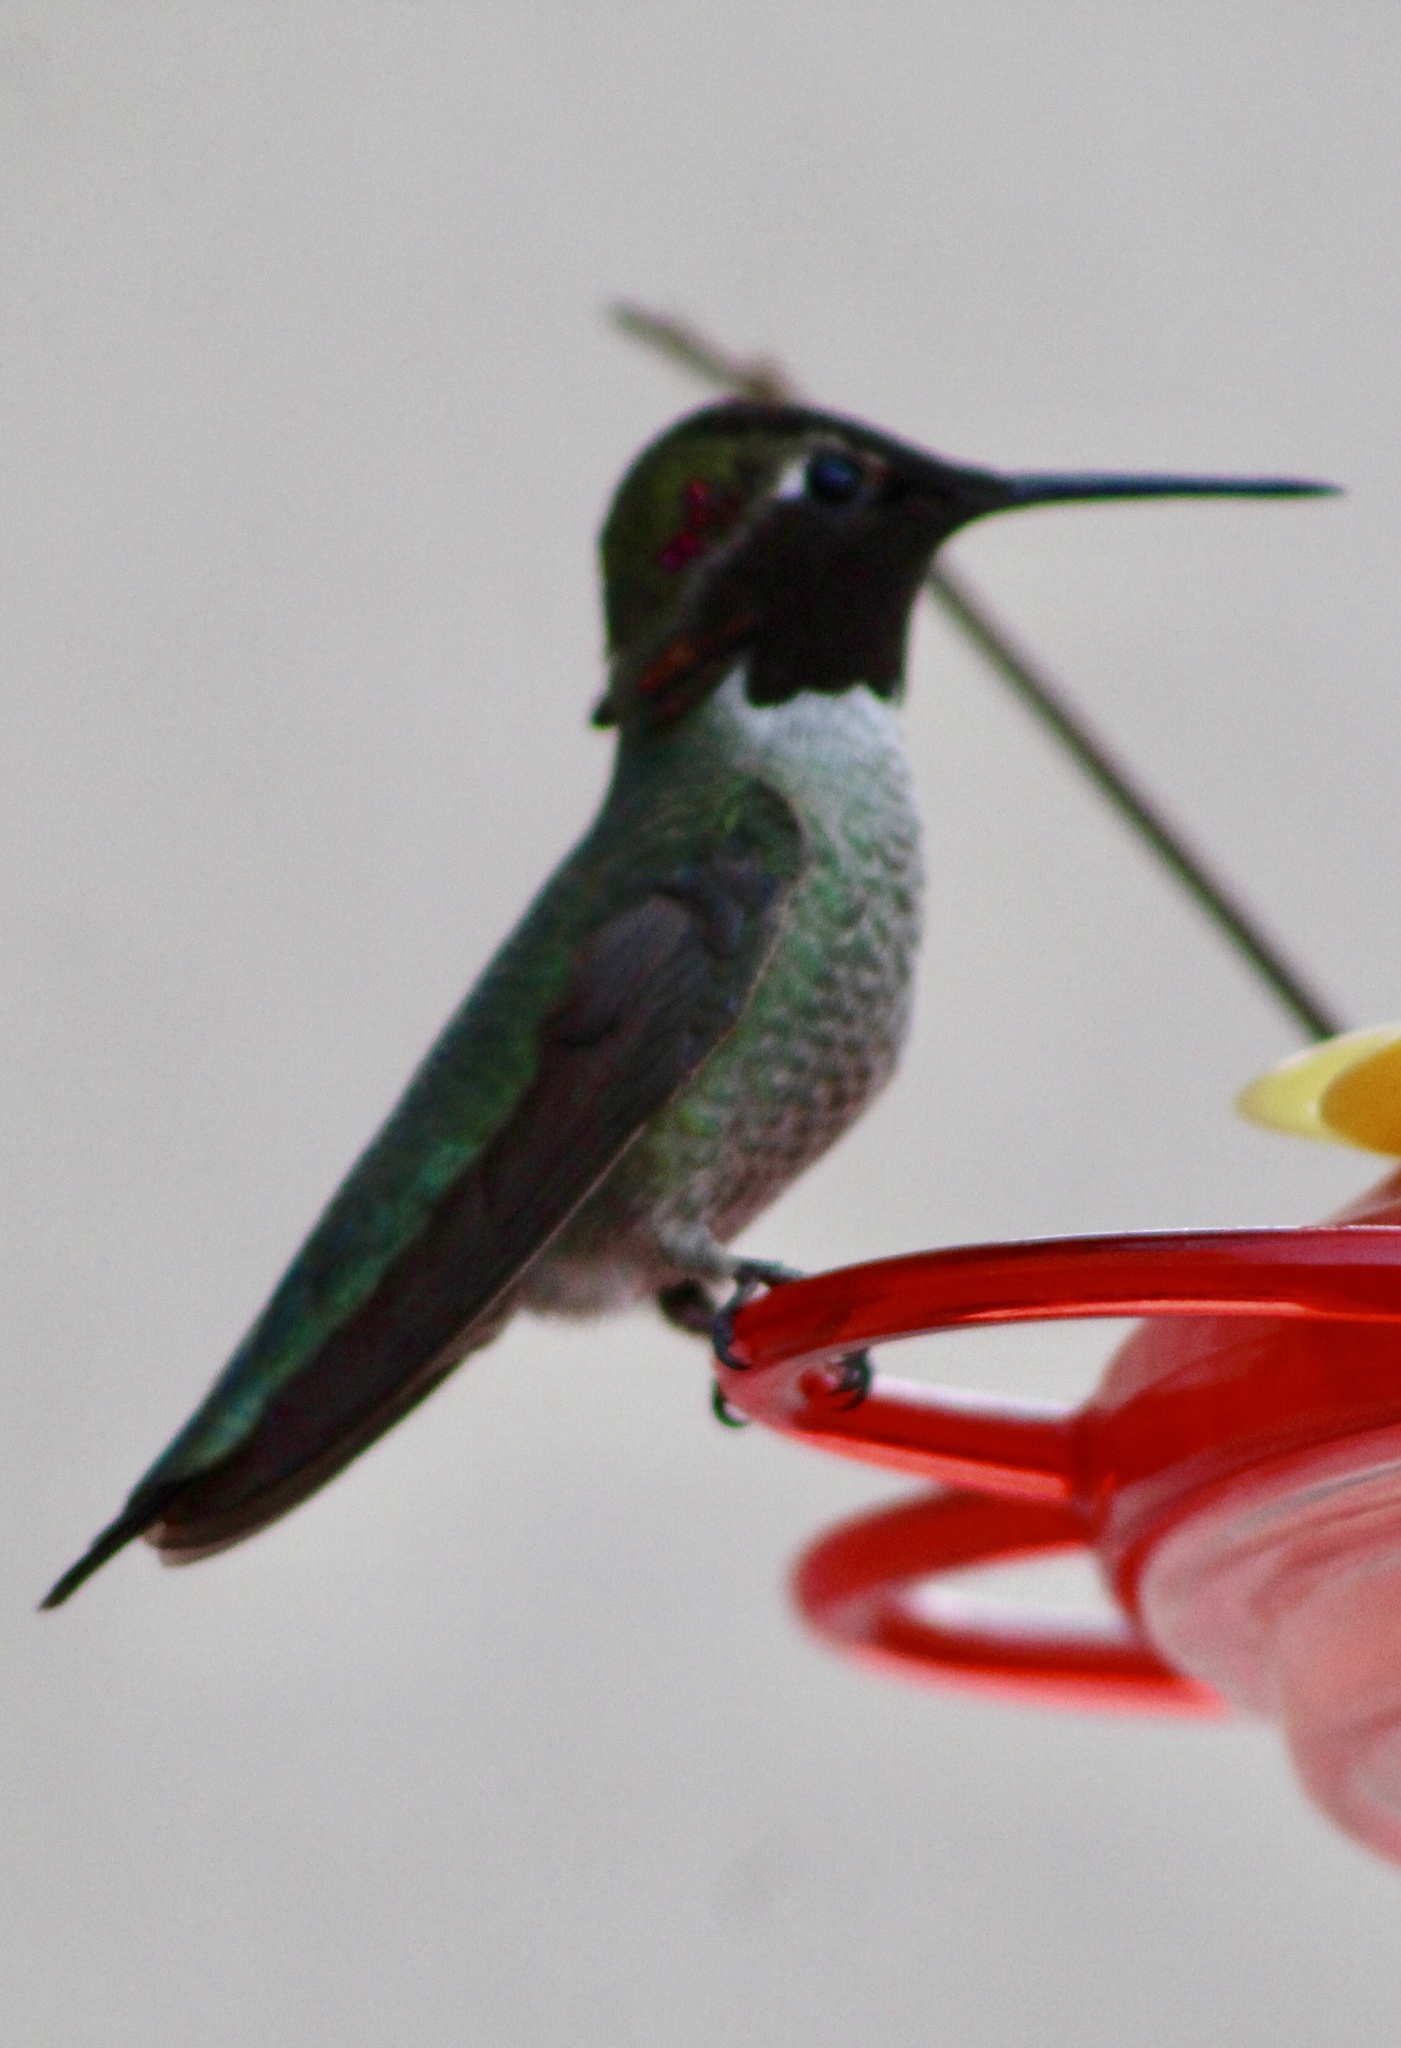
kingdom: Animalia
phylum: Chordata
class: Aves
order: Apodiformes
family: Trochilidae
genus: Calypte
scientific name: Calypte anna
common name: Anna's hummingbird
